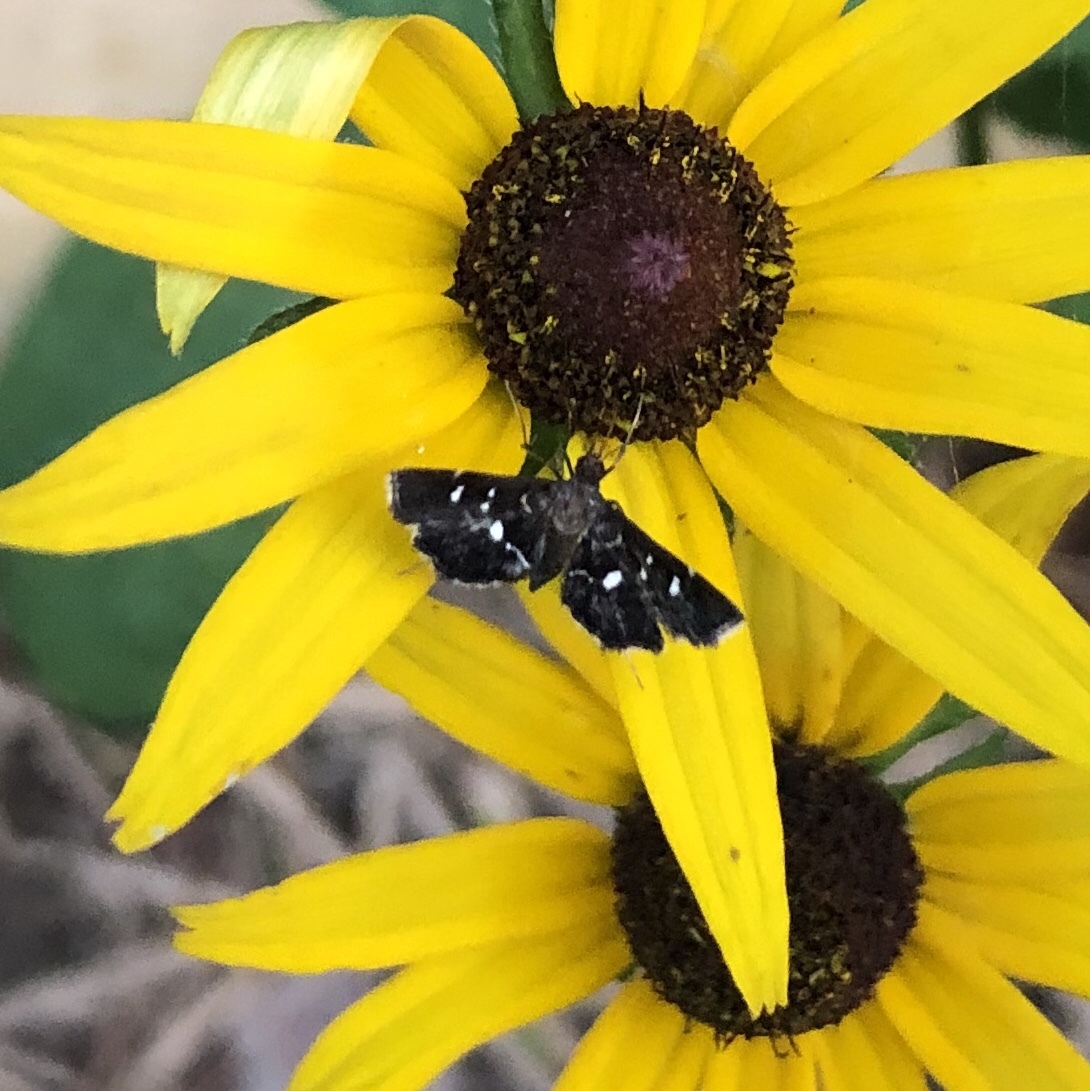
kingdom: Animalia
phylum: Arthropoda
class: Insecta
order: Lepidoptera
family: Crambidae
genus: Diathrausta
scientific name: Diathrausta
